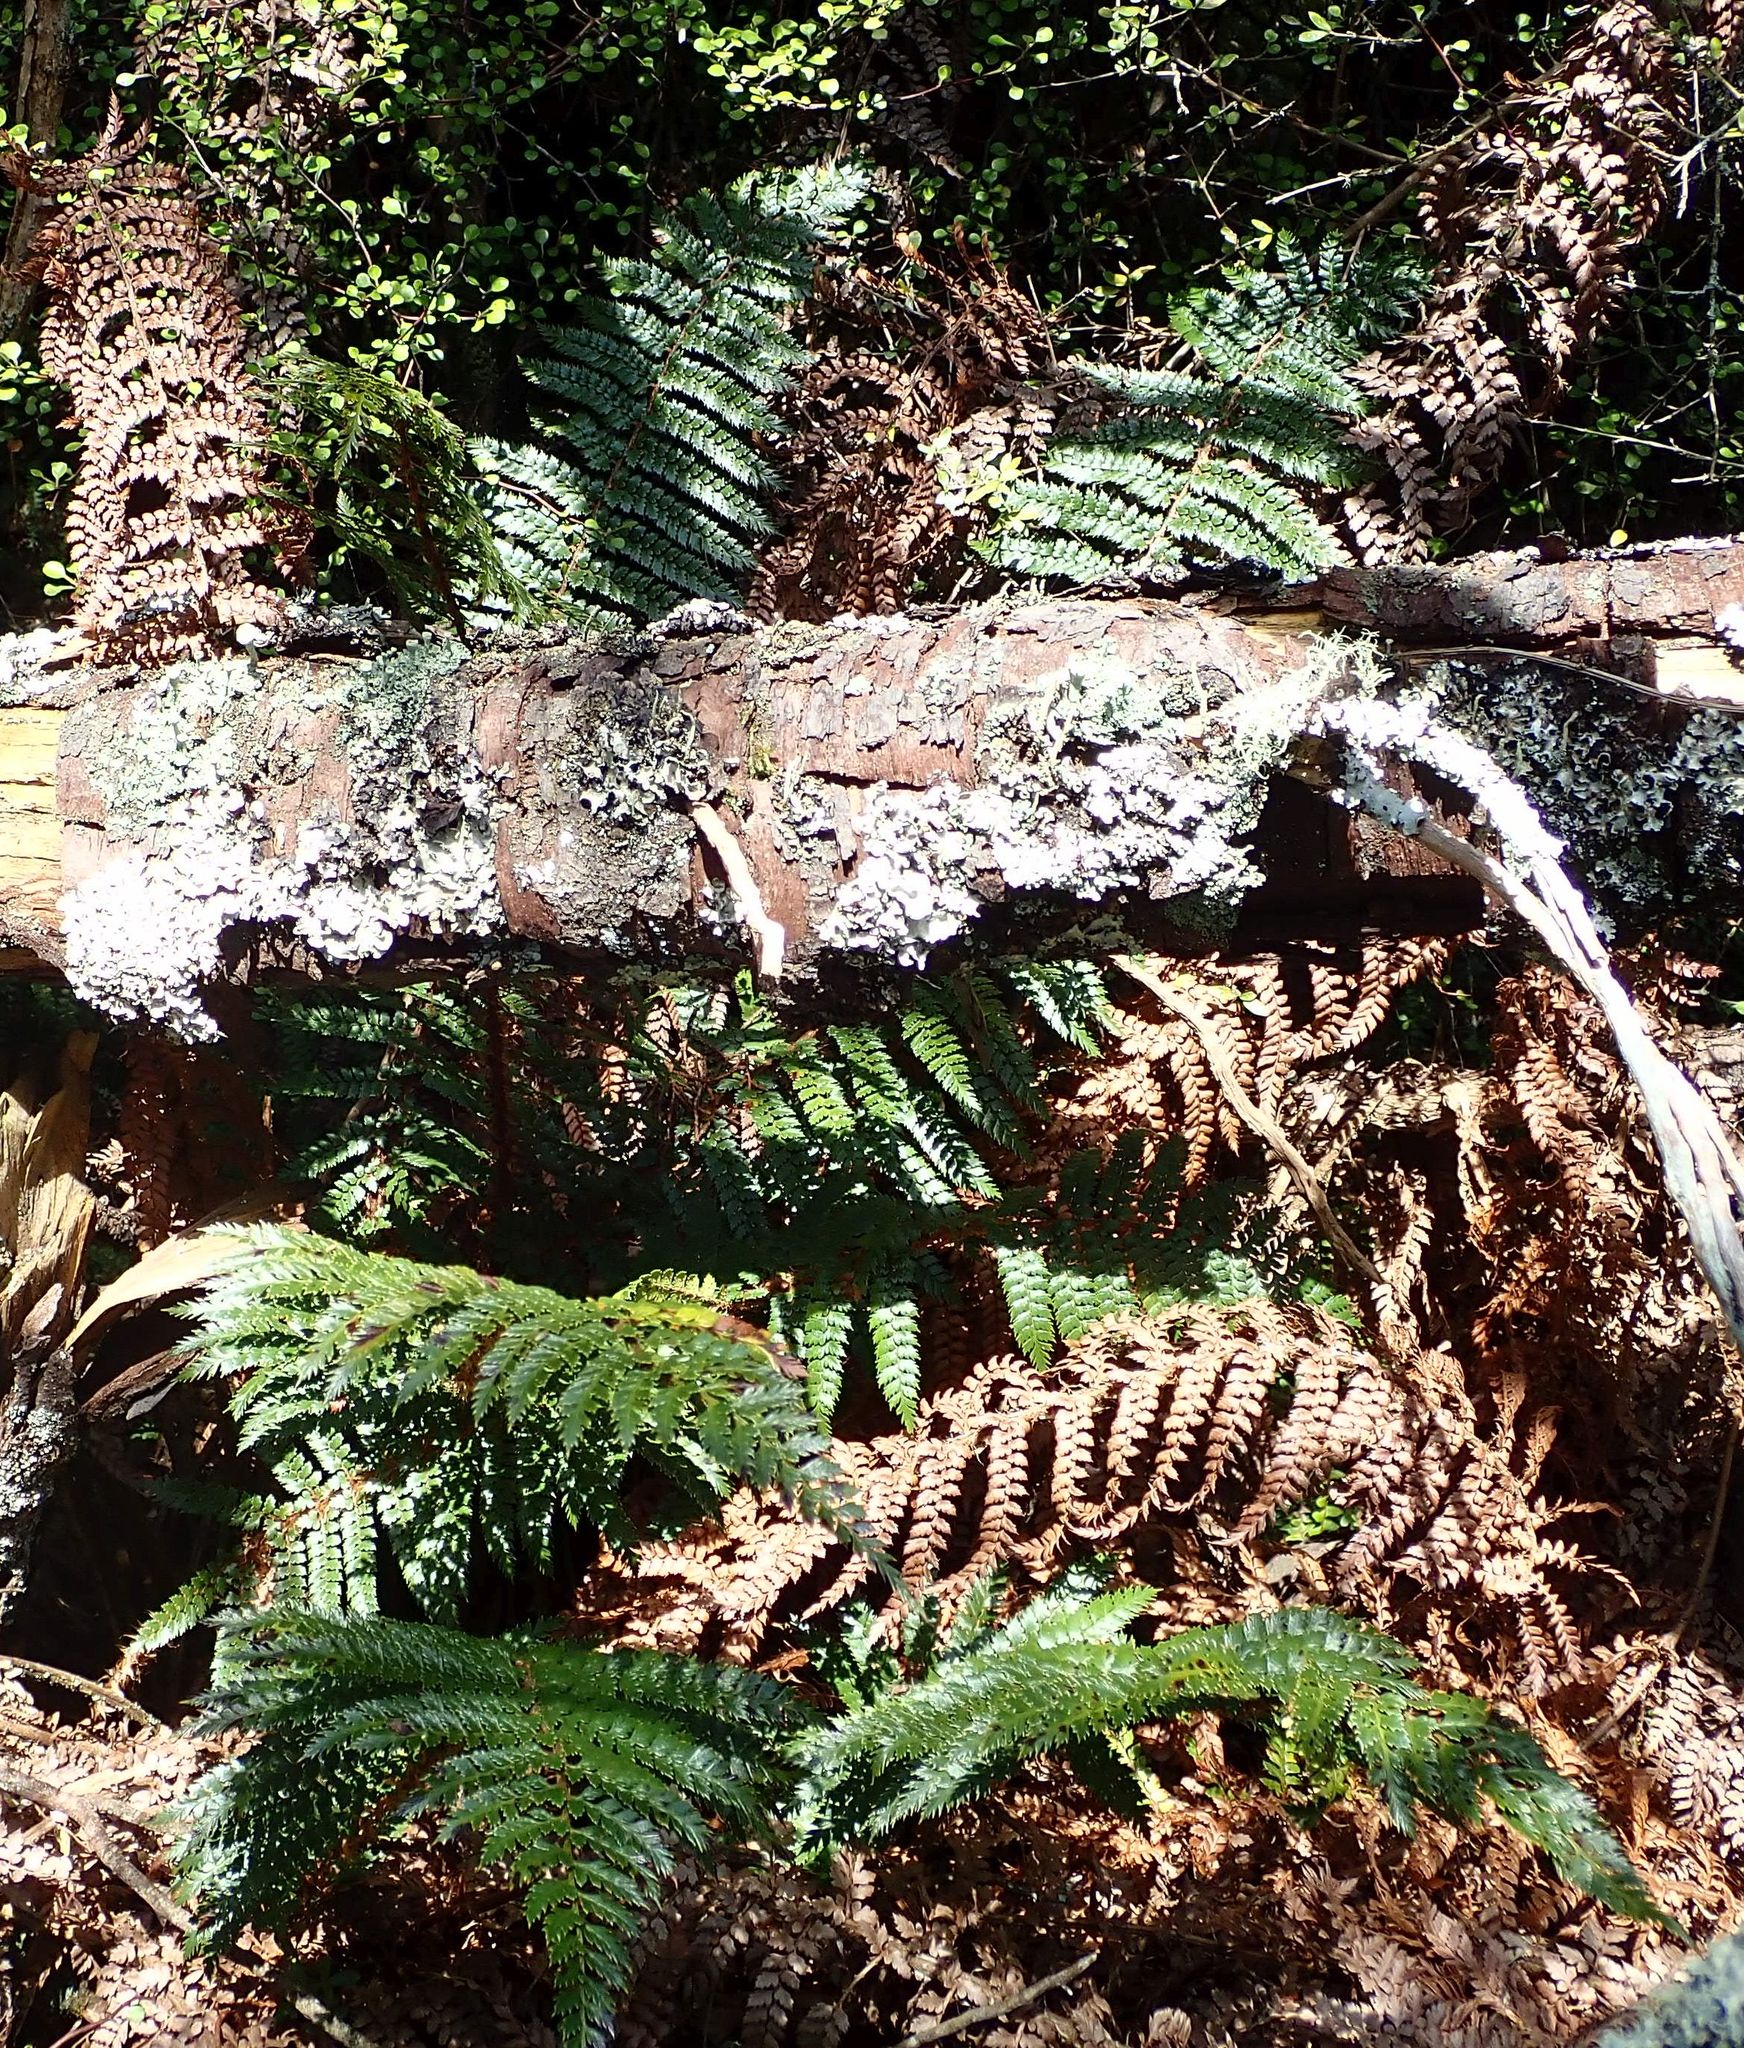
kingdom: Plantae
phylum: Tracheophyta
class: Polypodiopsida
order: Polypodiales
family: Dryopteridaceae
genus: Polystichum
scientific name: Polystichum vestitum
